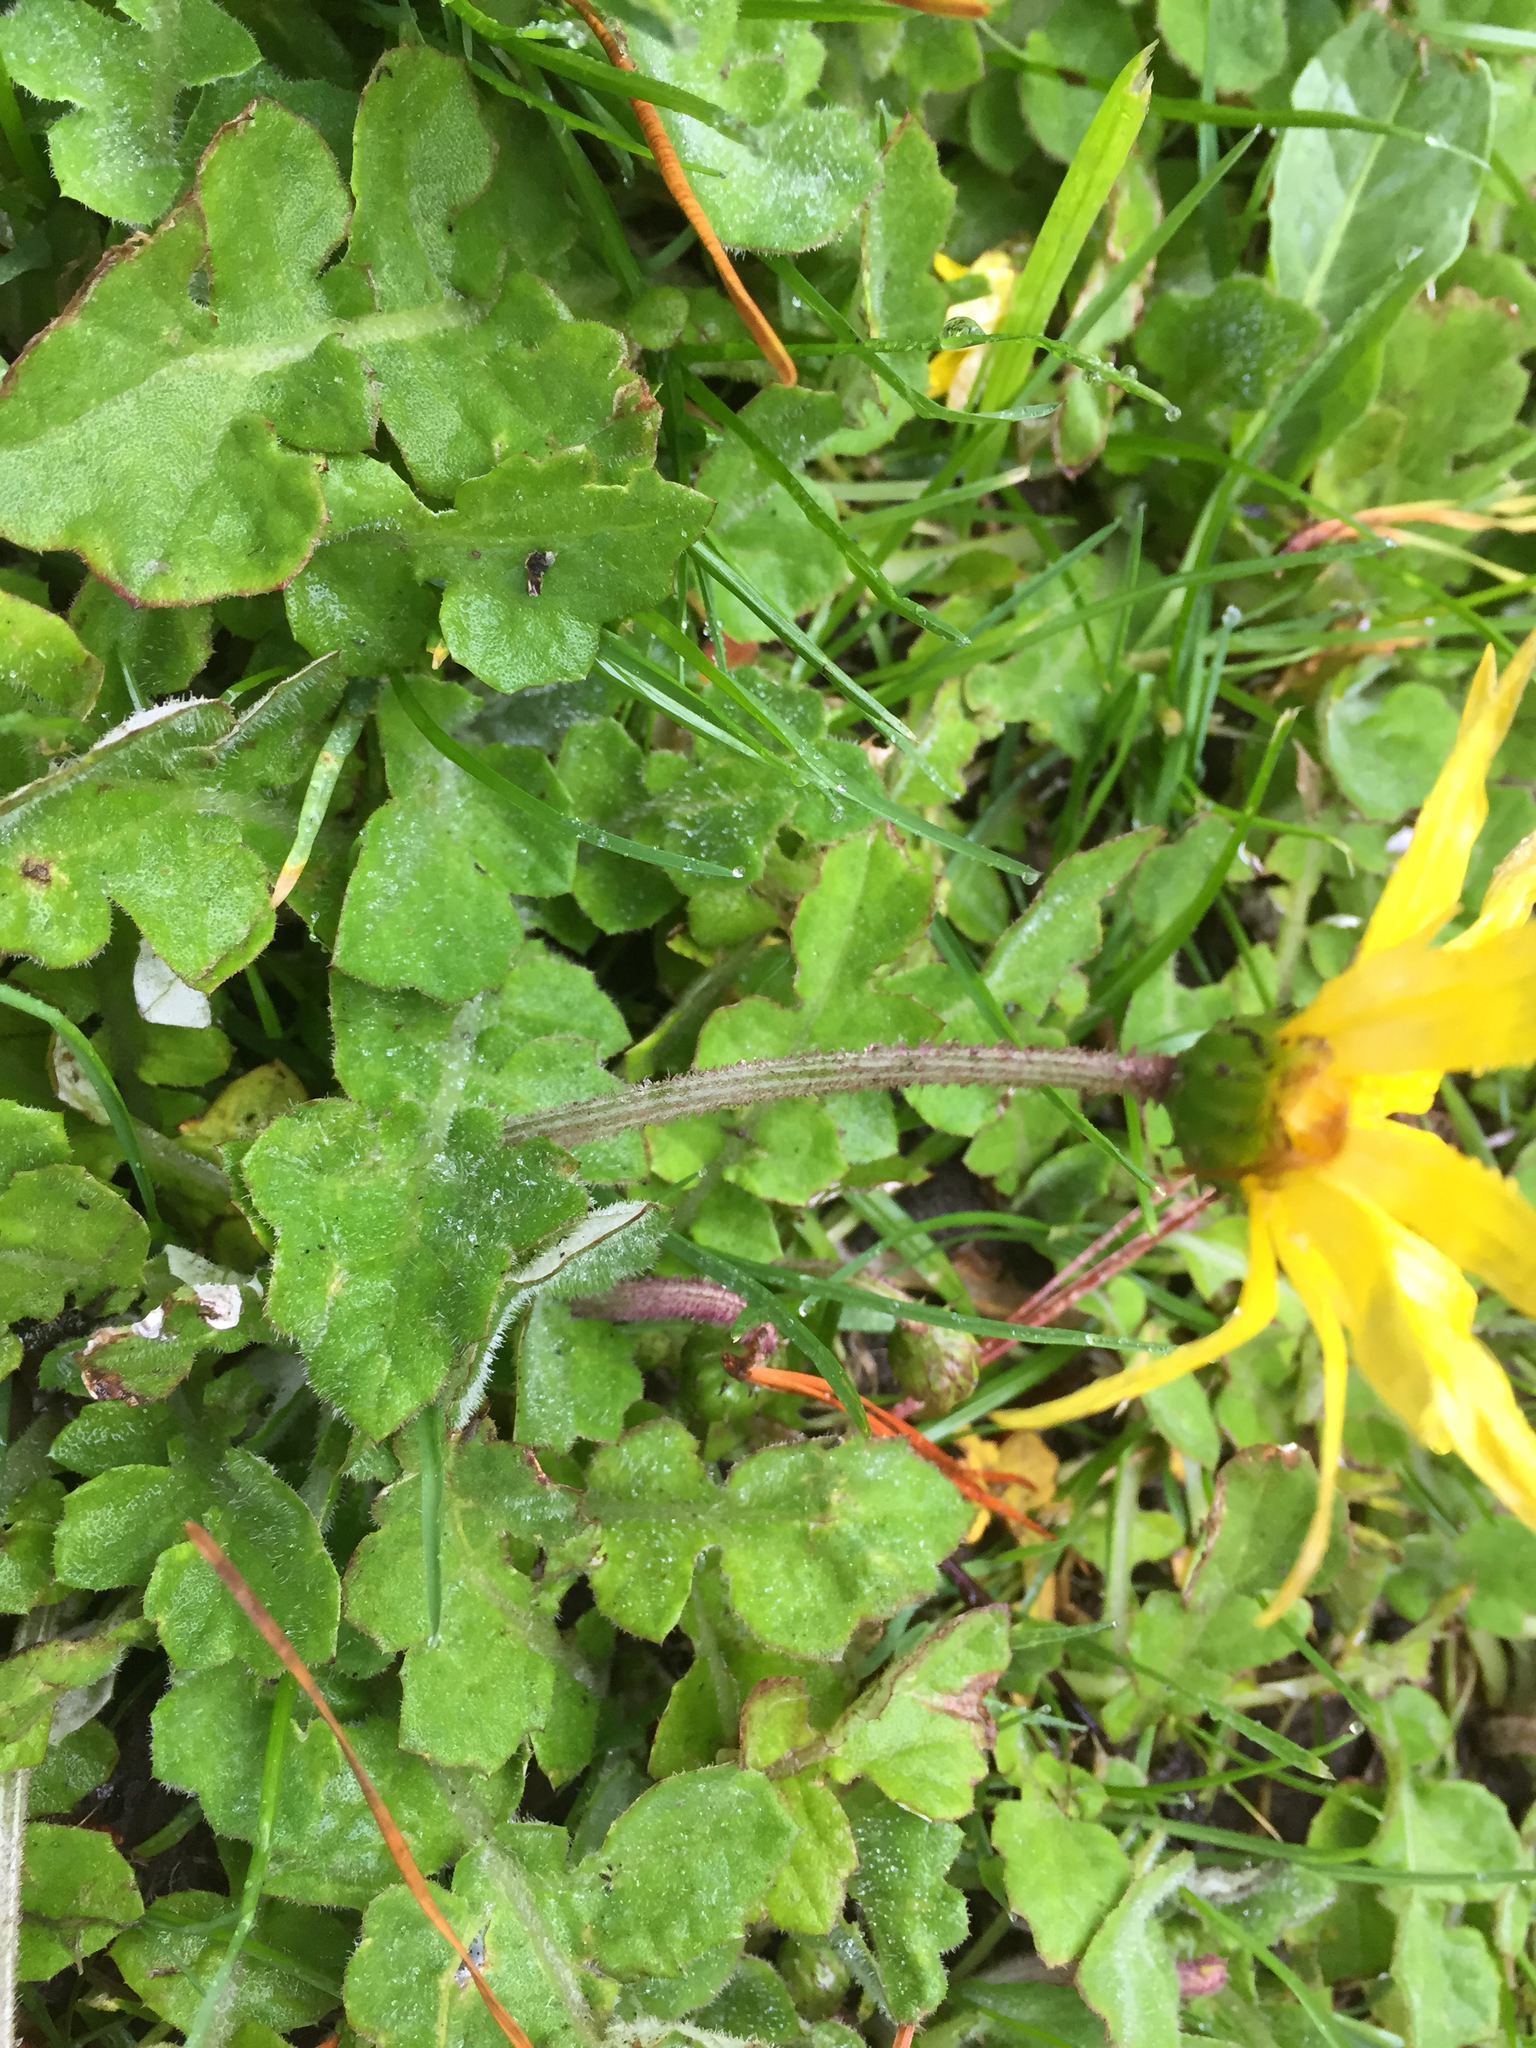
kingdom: Plantae
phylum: Tracheophyta
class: Magnoliopsida
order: Asterales
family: Asteraceae
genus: Arctotheca
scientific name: Arctotheca prostrata
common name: Capeweed
